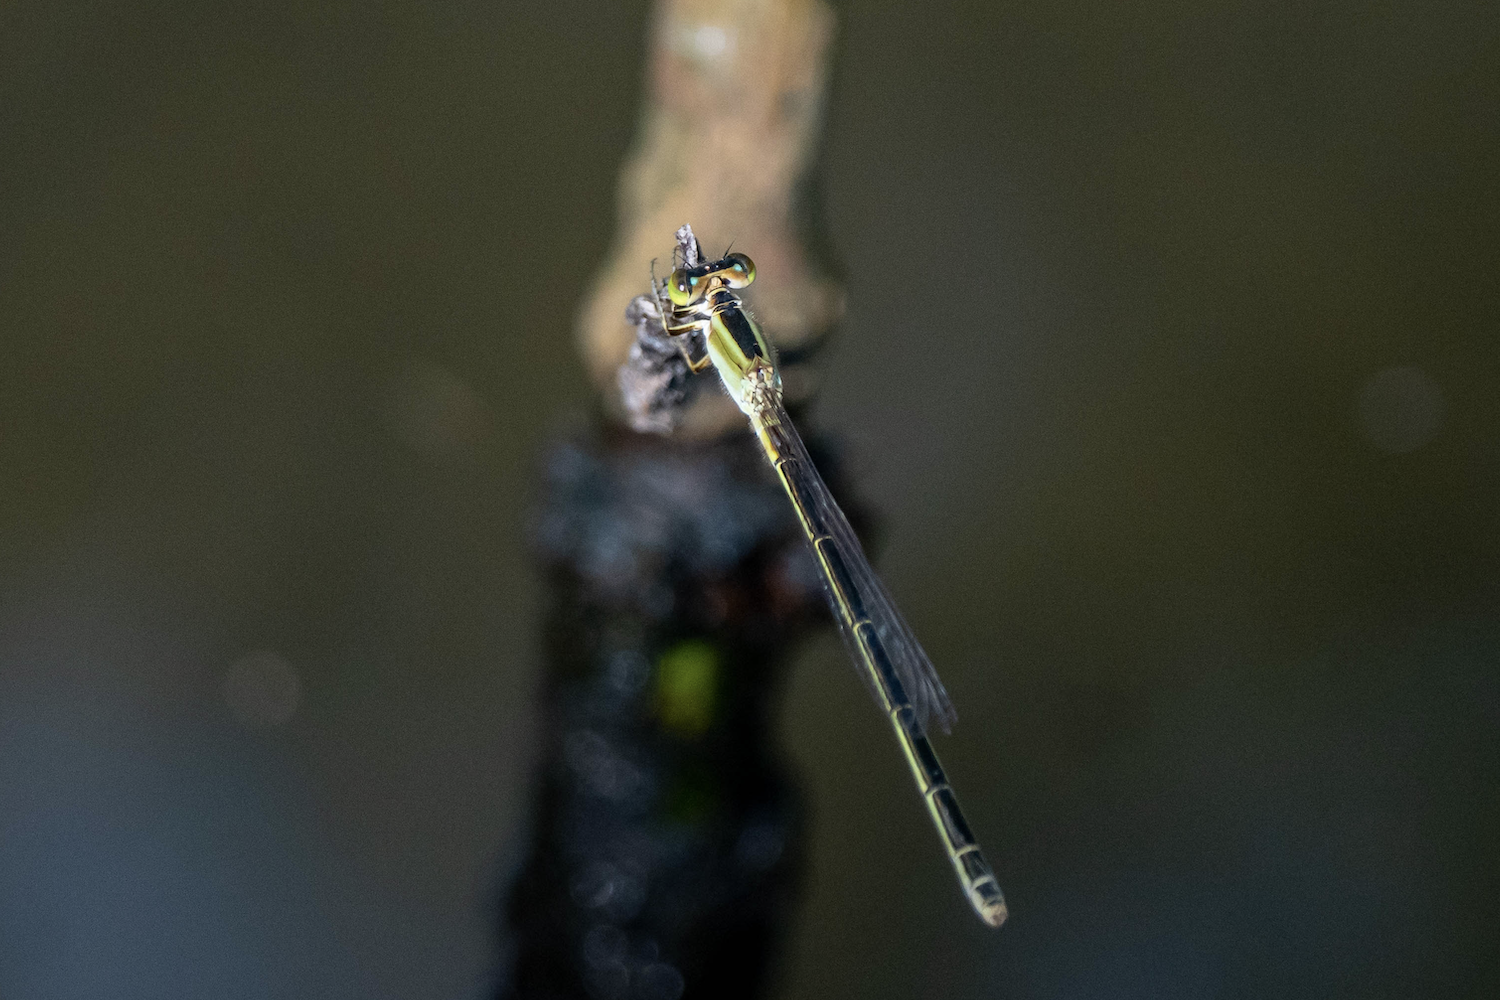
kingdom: Animalia
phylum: Arthropoda
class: Insecta
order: Odonata
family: Coenagrionidae
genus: Agriocnemis
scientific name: Agriocnemis pygmaea
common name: Pygmy wisp
